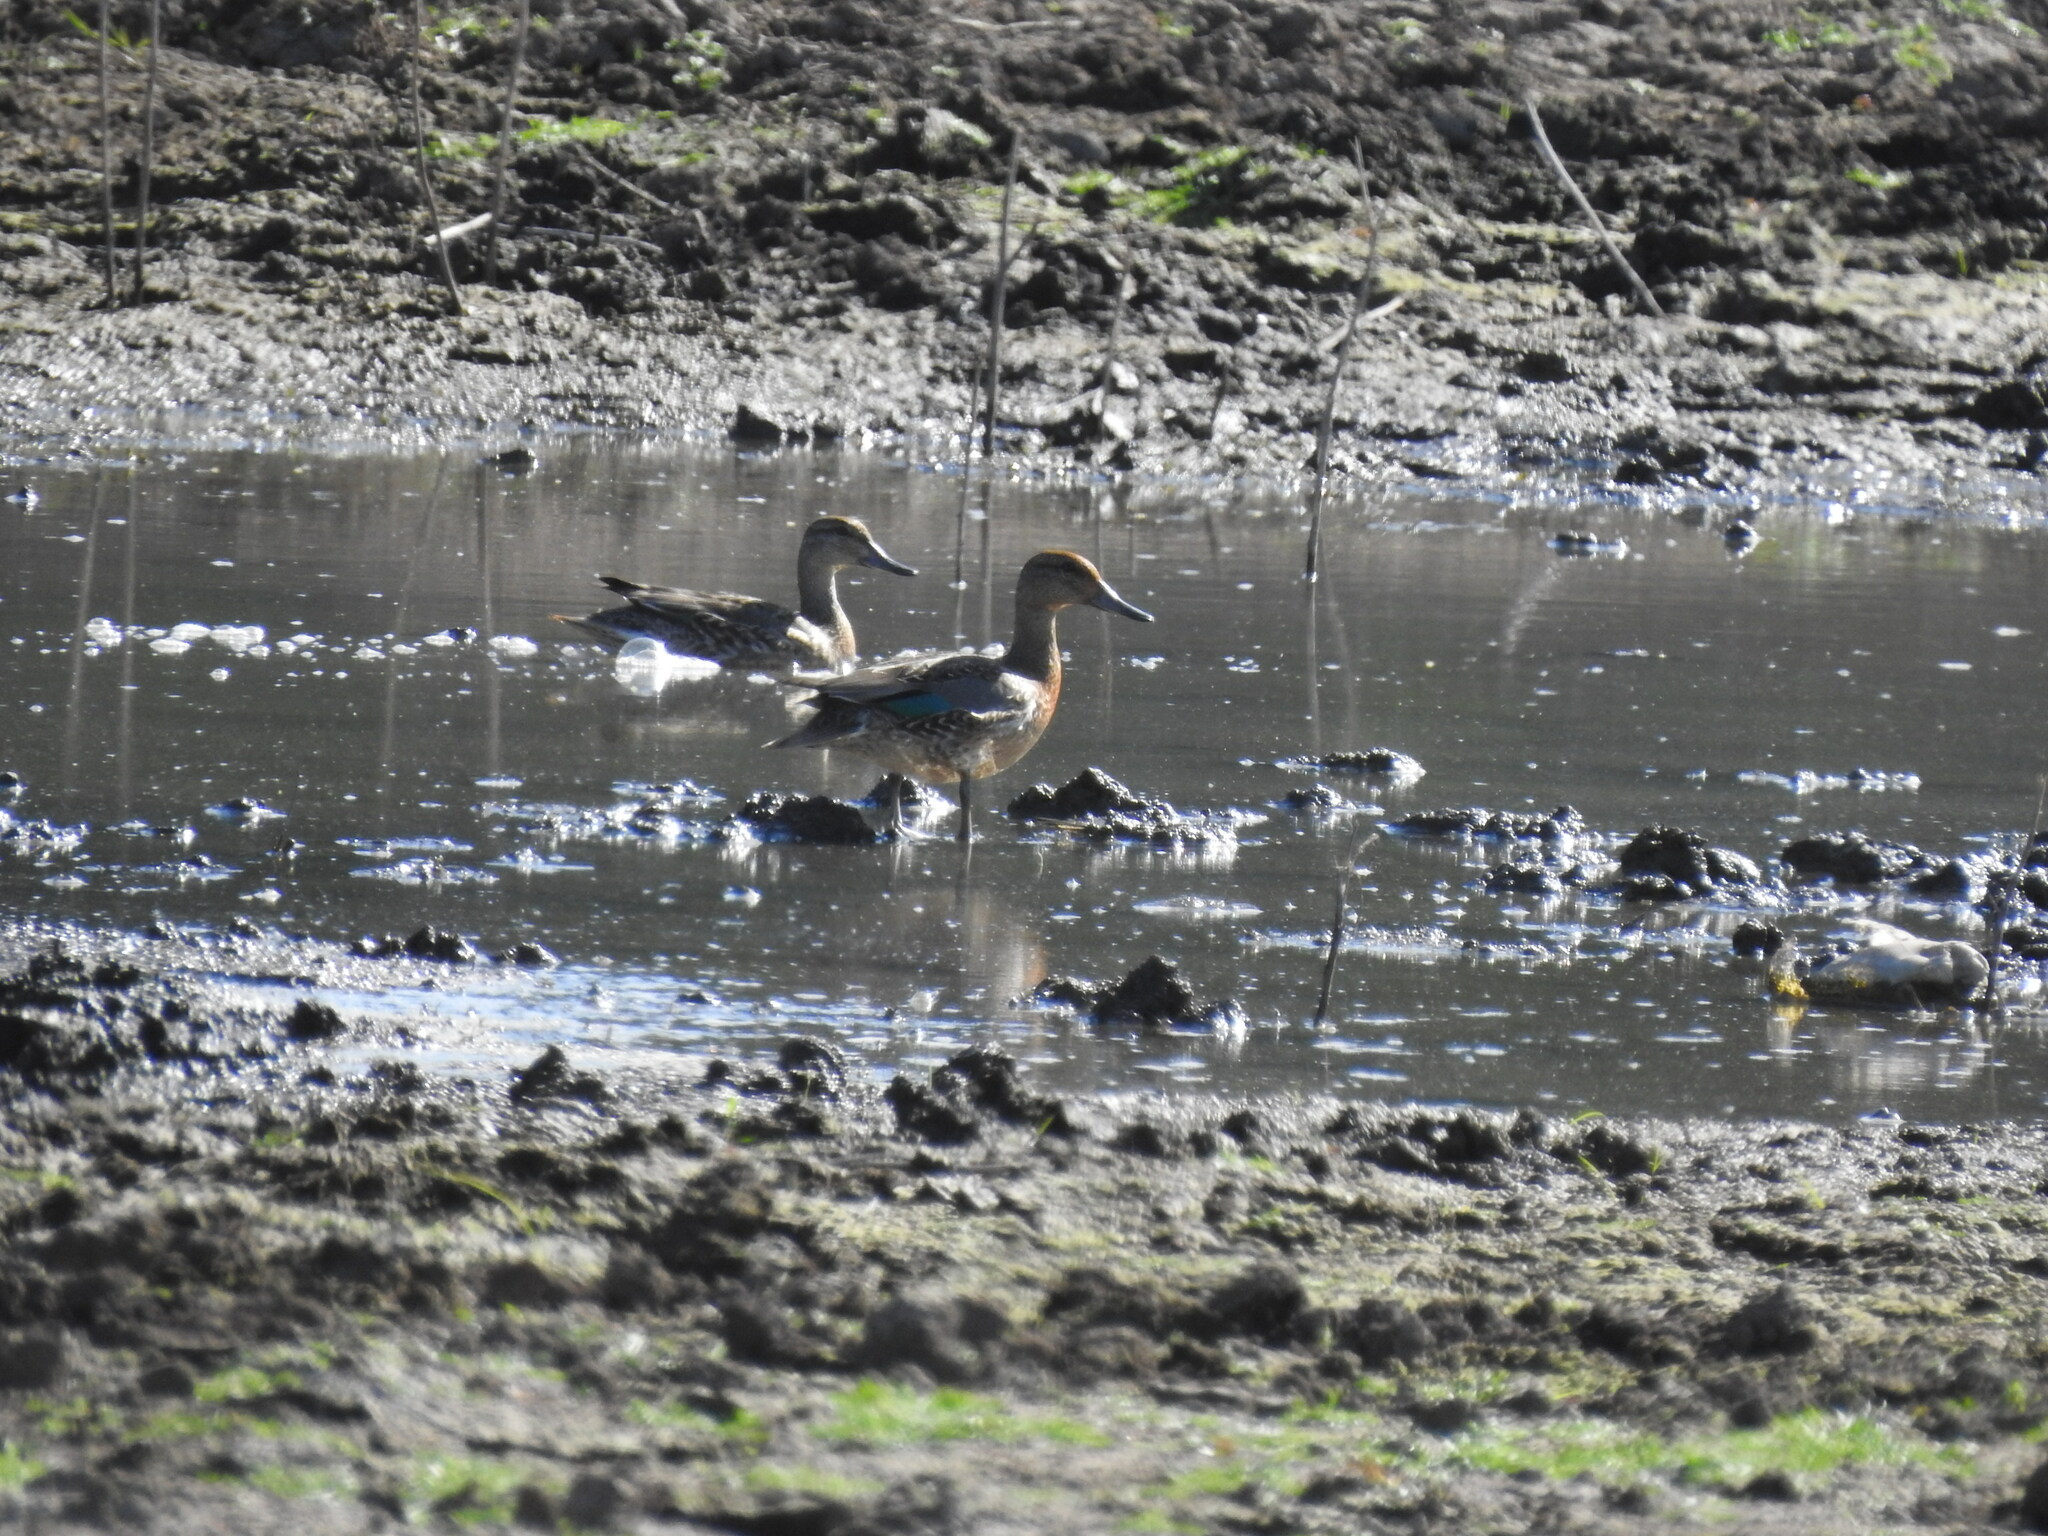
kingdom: Animalia
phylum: Chordata
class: Aves
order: Anseriformes
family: Anatidae
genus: Anas
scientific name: Anas crecca
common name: Eurasian teal
